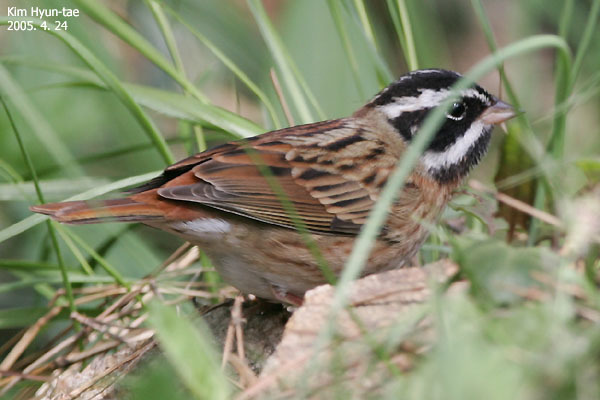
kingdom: Animalia
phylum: Chordata
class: Aves
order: Passeriformes
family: Emberizidae
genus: Emberiza
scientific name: Emberiza tristrami
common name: Tristram's bunting
